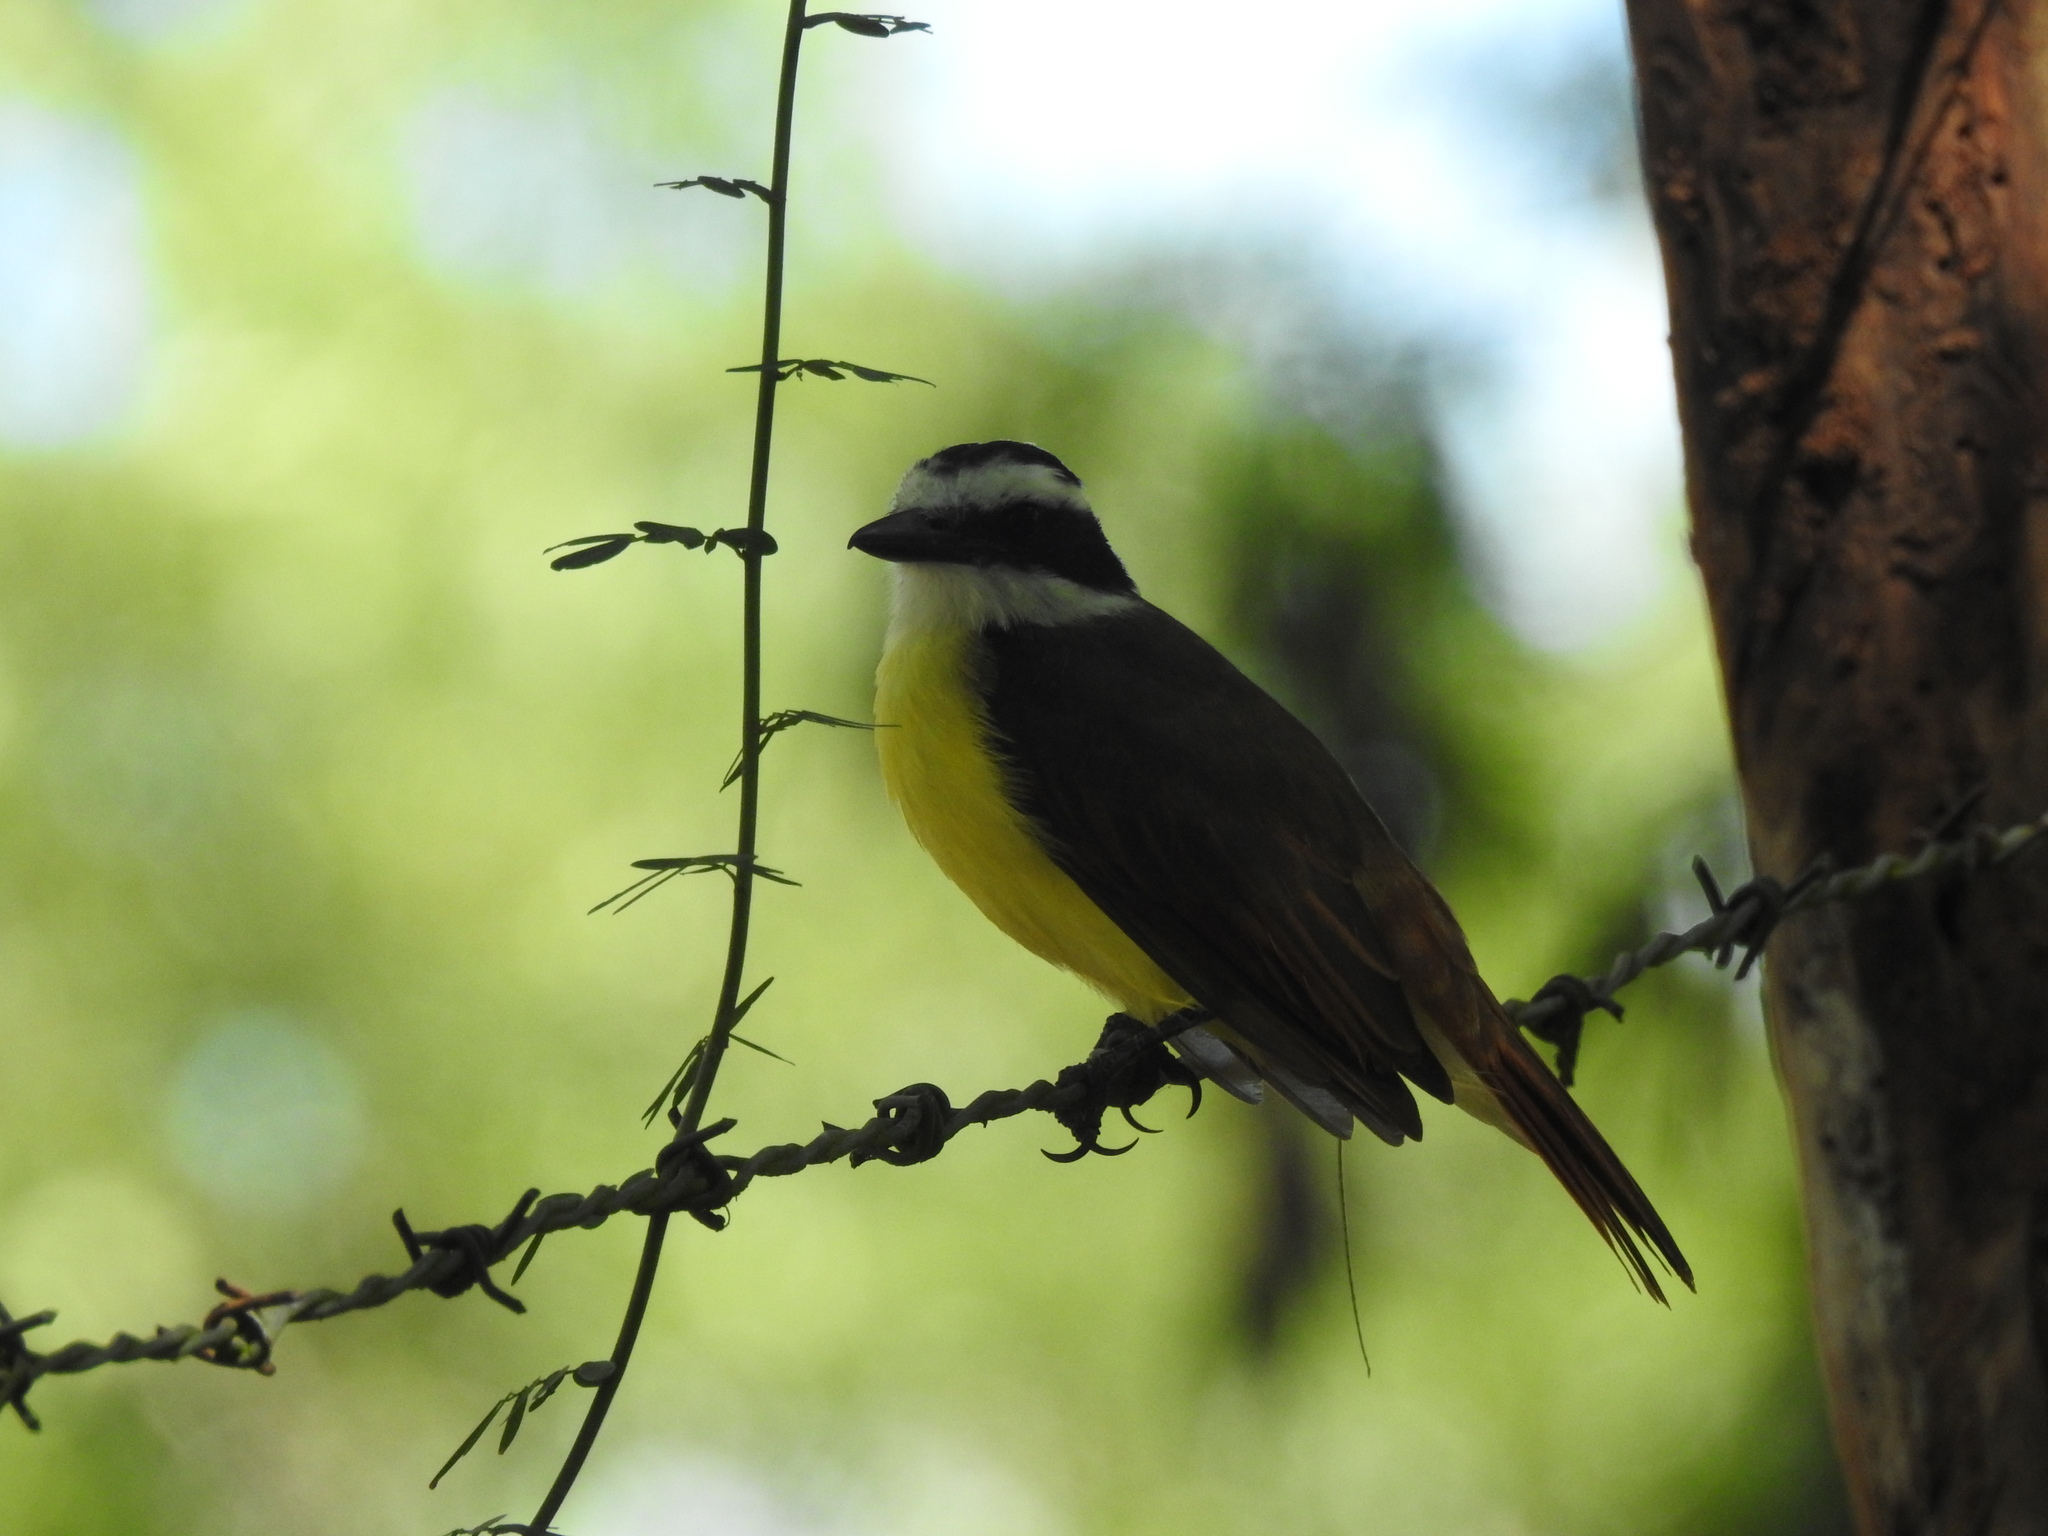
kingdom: Animalia
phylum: Chordata
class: Aves
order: Passeriformes
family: Tyrannidae
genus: Pitangus
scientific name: Pitangus sulphuratus
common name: Great kiskadee
